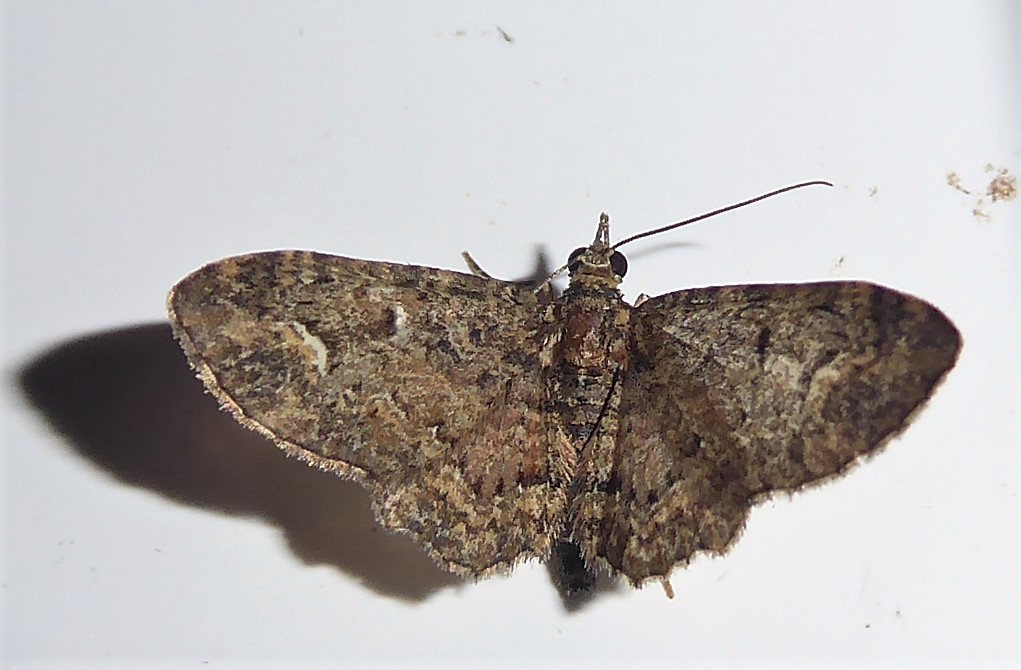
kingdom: Animalia
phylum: Arthropoda
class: Insecta
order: Lepidoptera
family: Geometridae
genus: Pasiphilodes
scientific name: Pasiphilodes testulata
